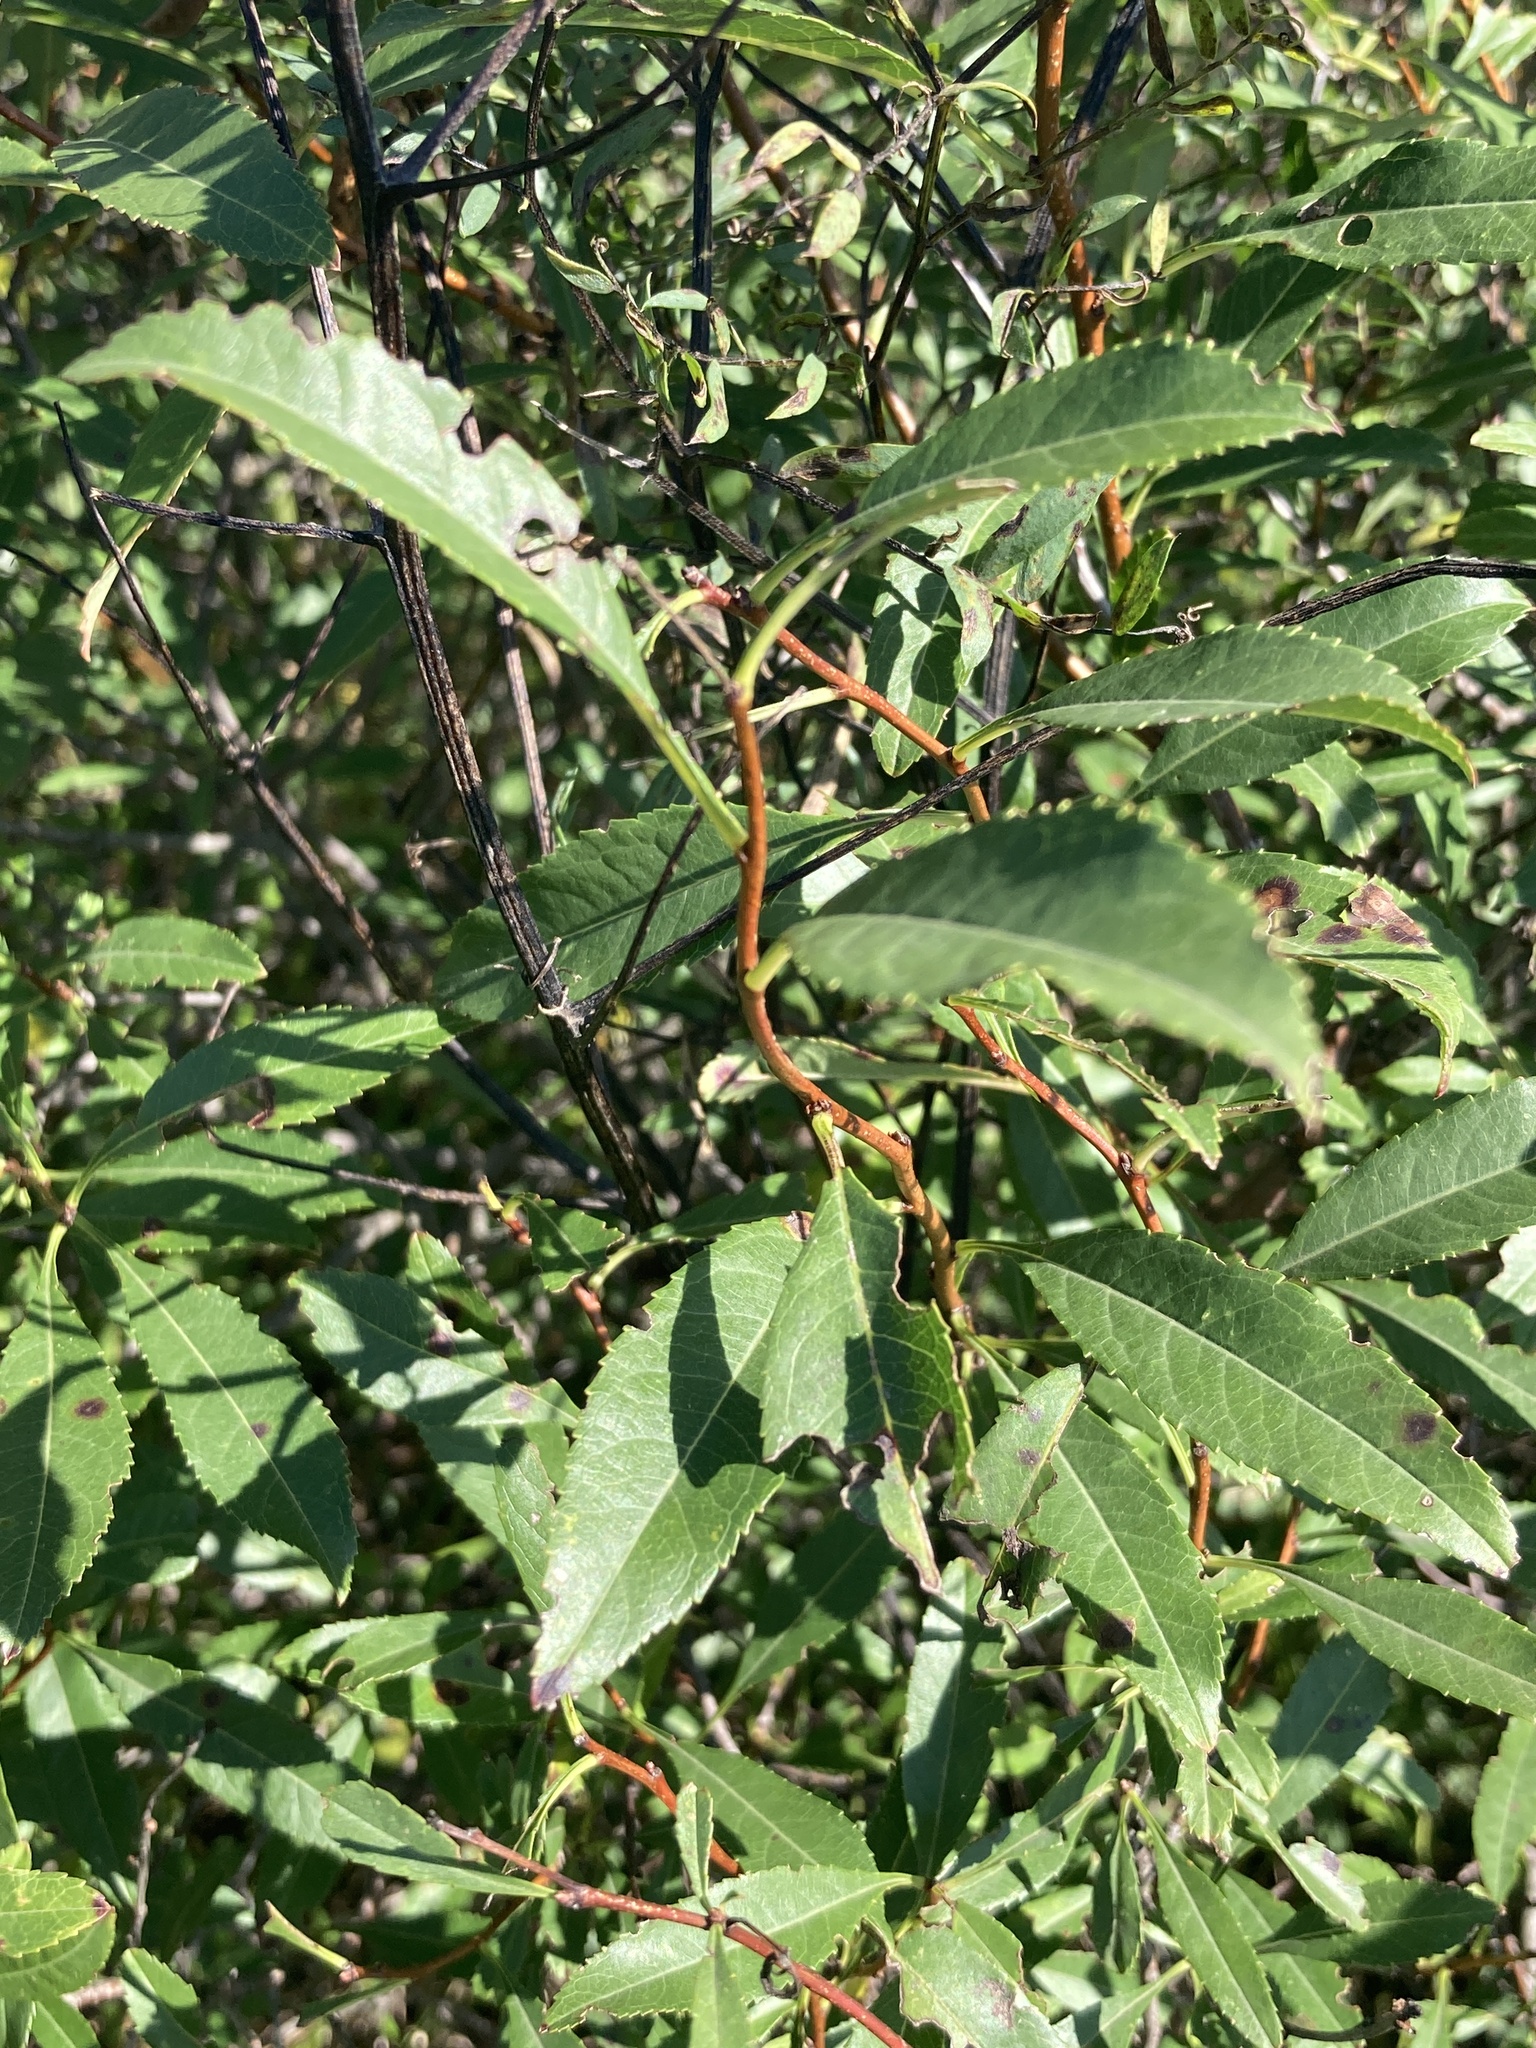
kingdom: Plantae
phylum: Tracheophyta
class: Magnoliopsida
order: Rosales
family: Rosaceae
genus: Prunus
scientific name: Prunus tenella
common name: Dwarf russian almond
